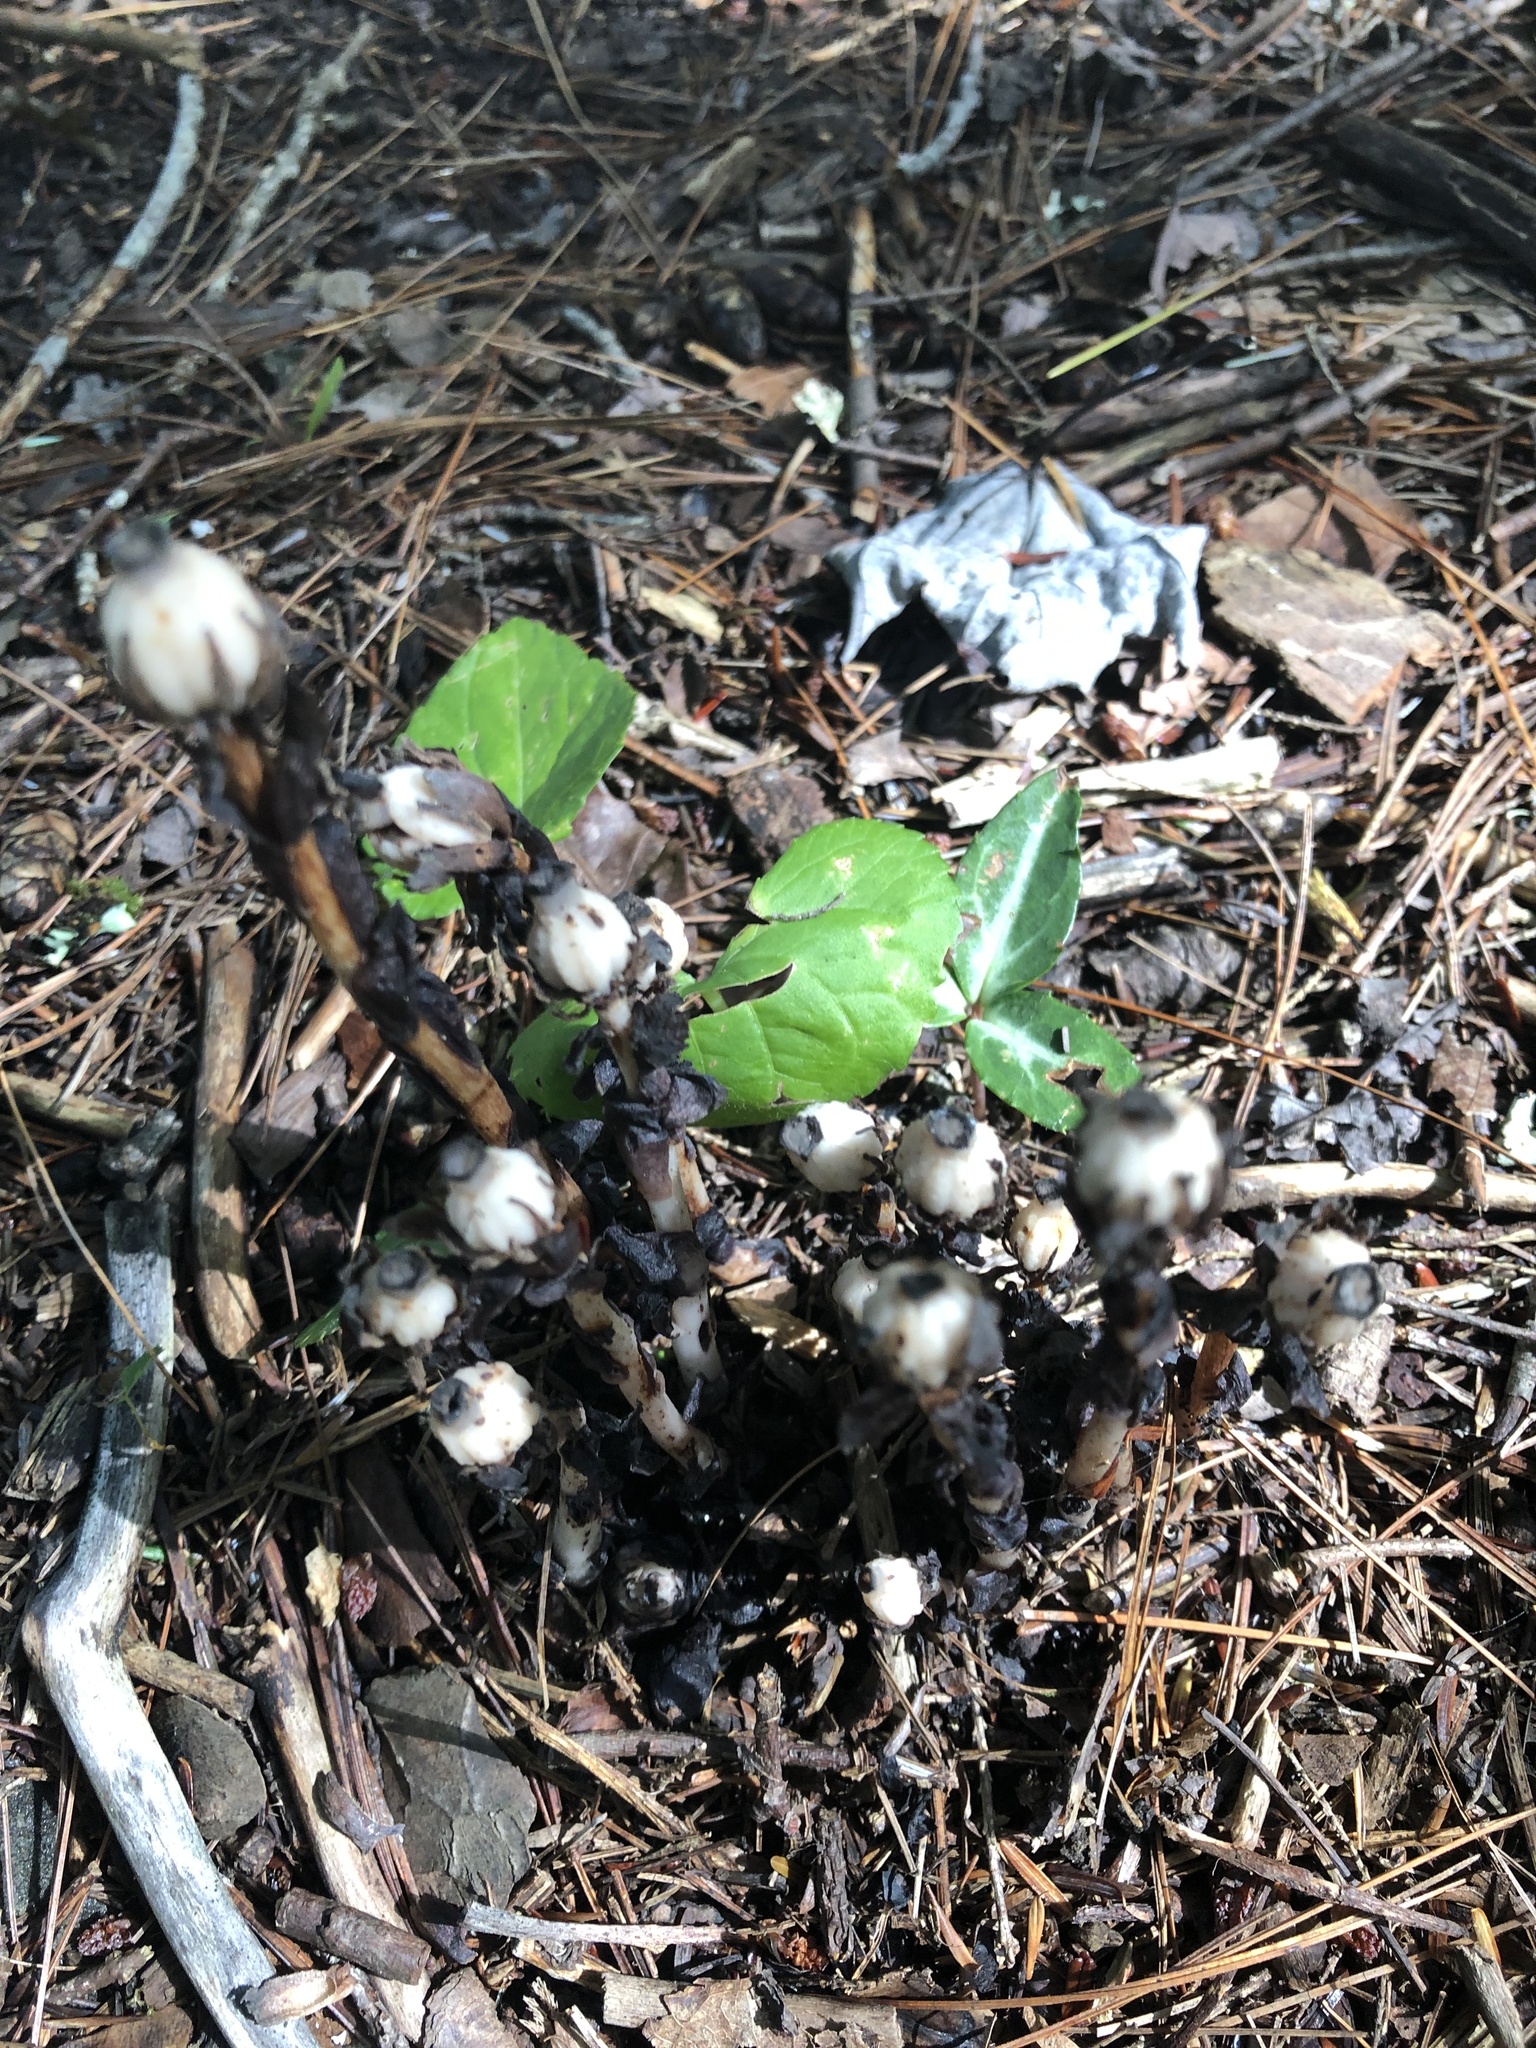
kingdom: Plantae
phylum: Tracheophyta
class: Magnoliopsida
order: Ericales
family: Ericaceae
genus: Monotropa
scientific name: Monotropa uniflora
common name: Convulsion root
